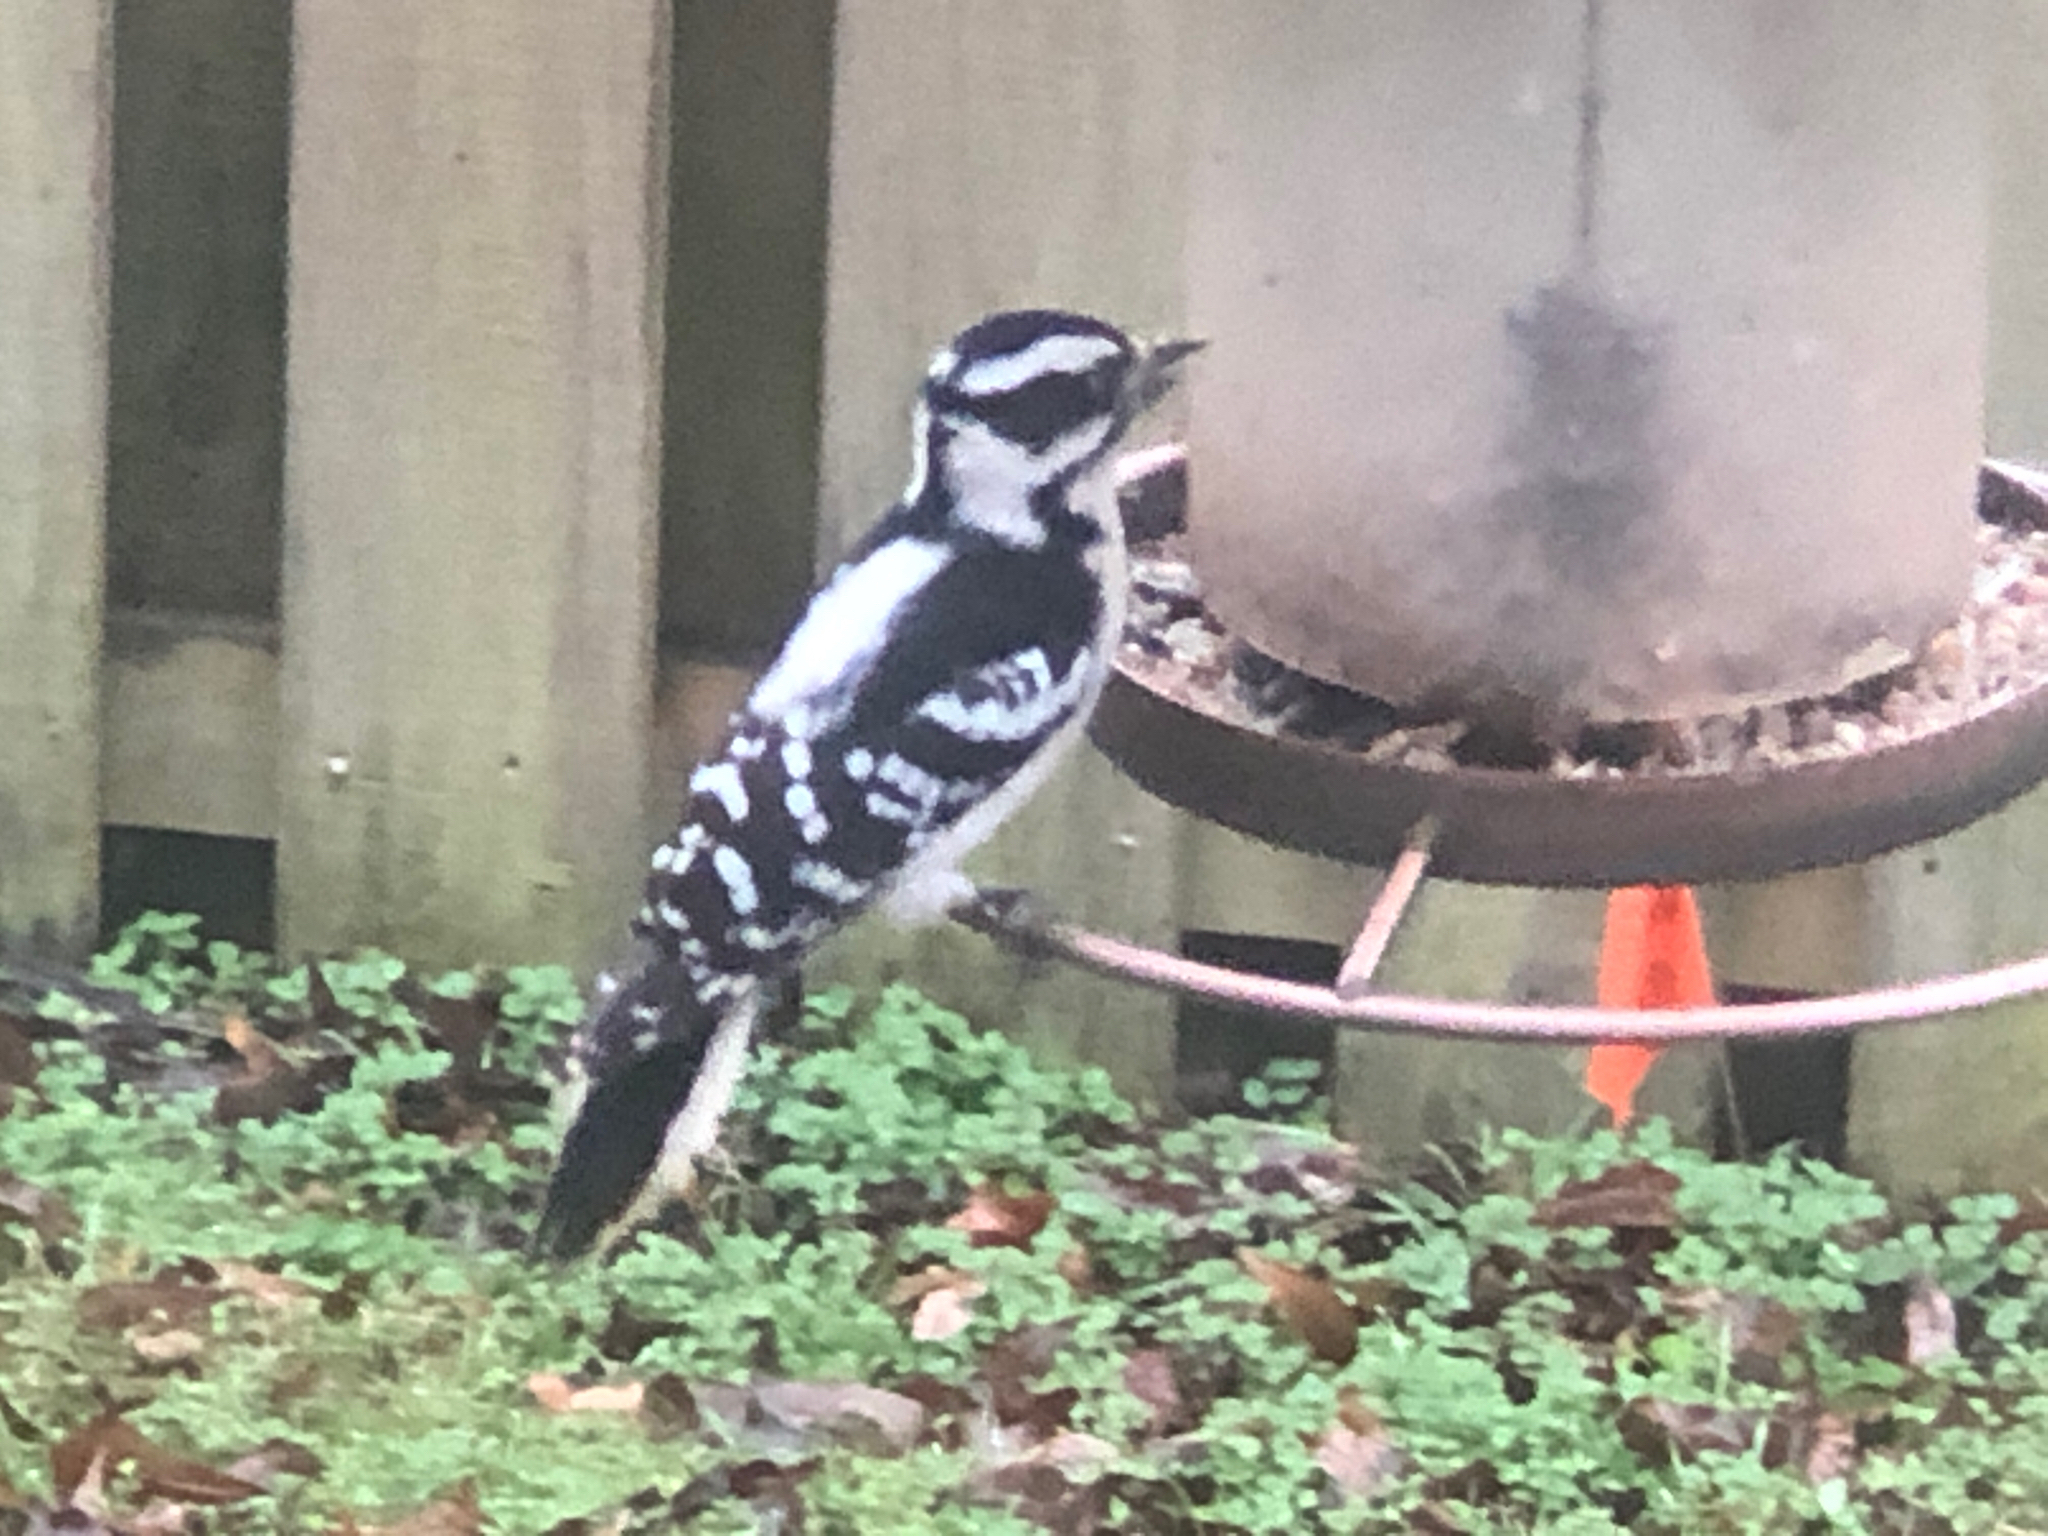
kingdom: Animalia
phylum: Chordata
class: Aves
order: Piciformes
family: Picidae
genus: Dryobates
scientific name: Dryobates pubescens
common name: Downy woodpecker
